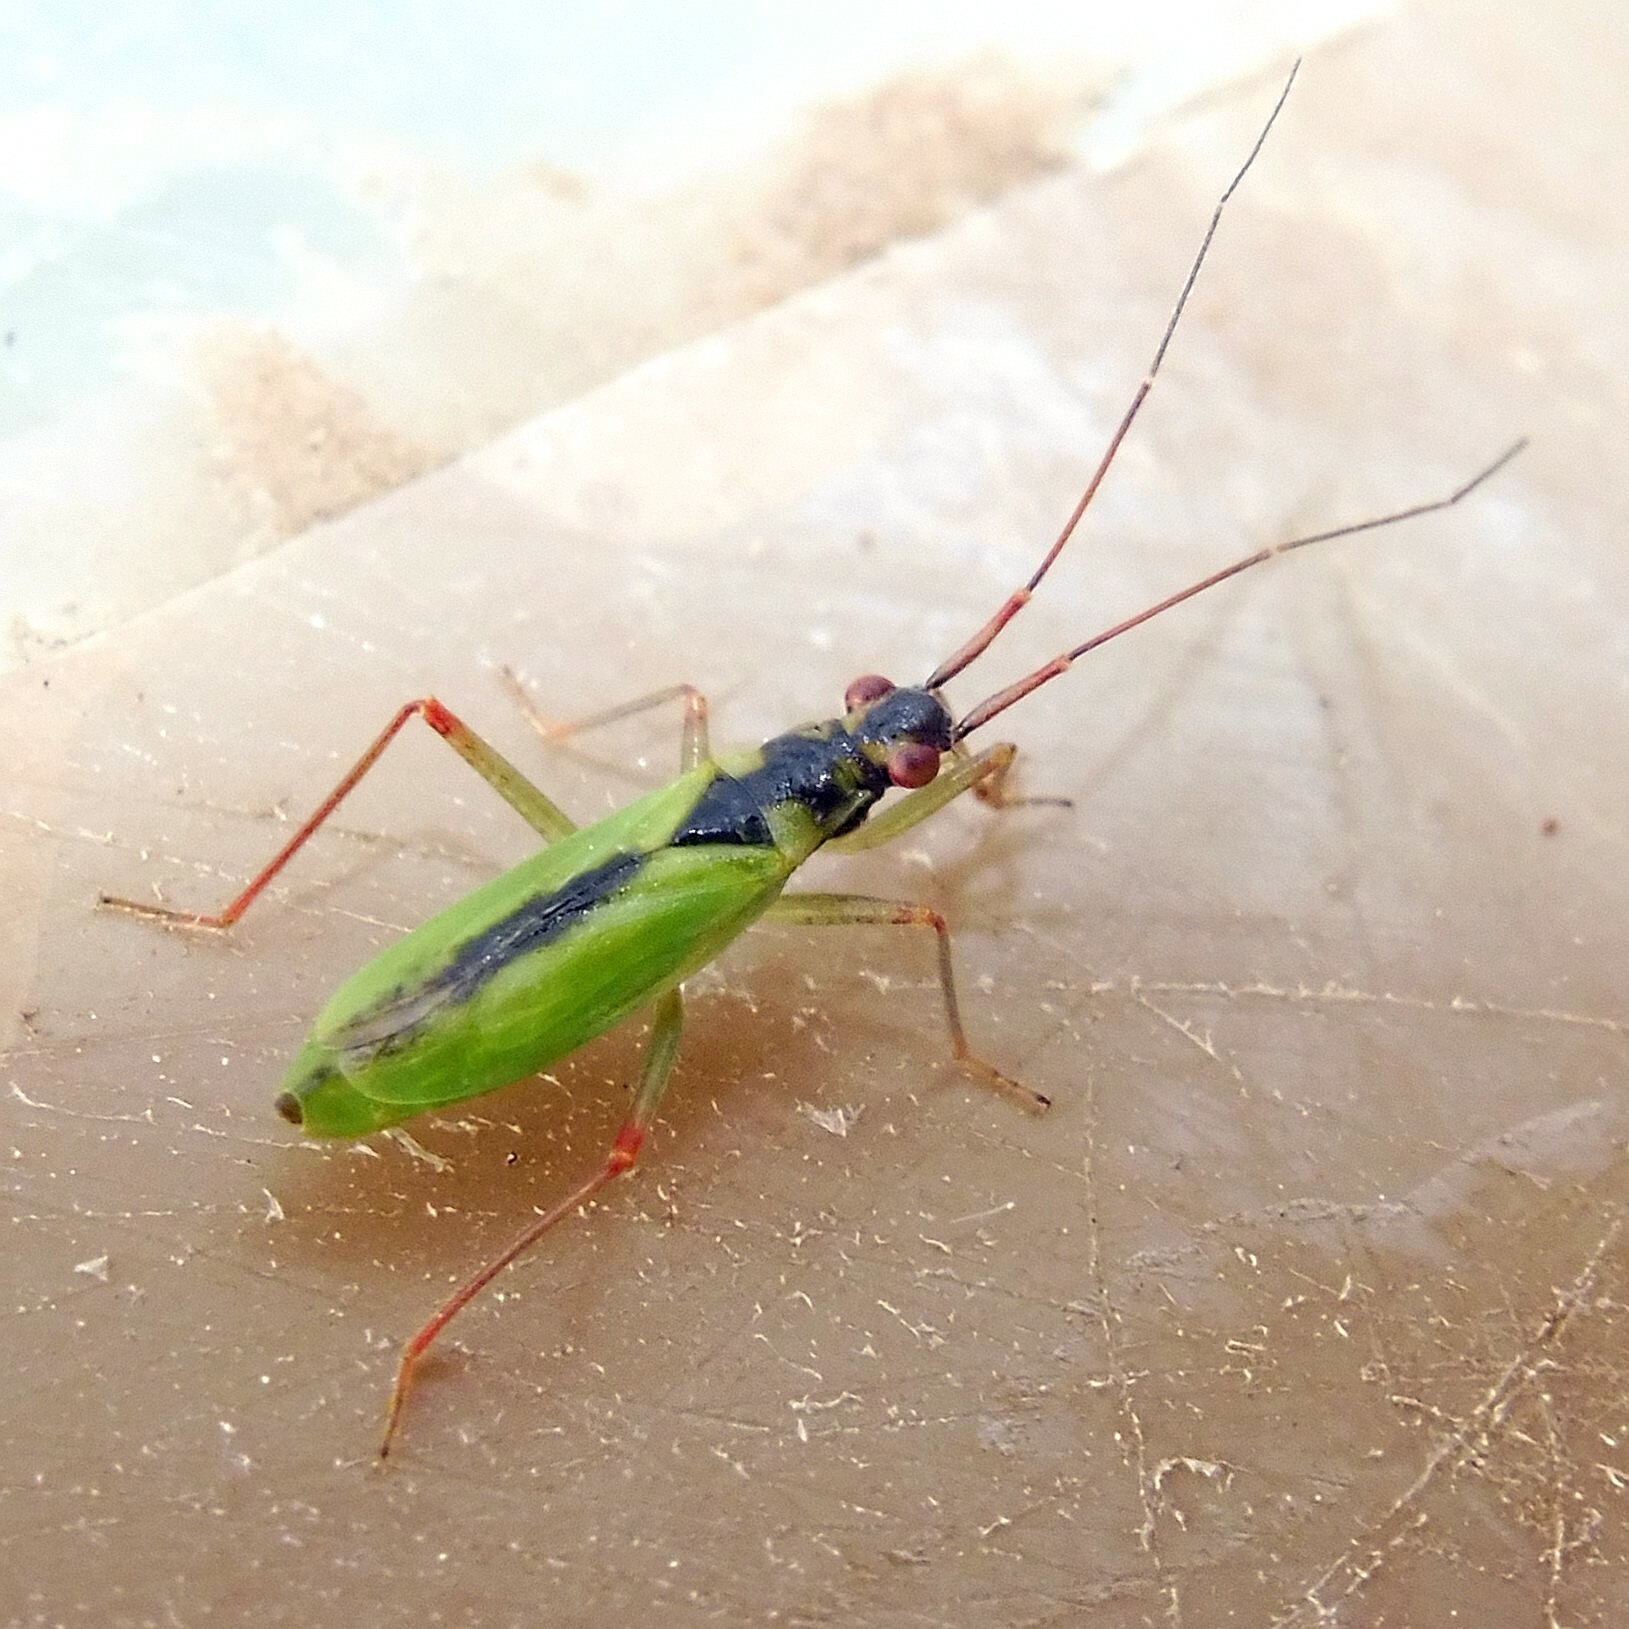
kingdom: Animalia
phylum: Arthropoda
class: Insecta
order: Hemiptera
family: Miridae
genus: Teratocoris
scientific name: Teratocoris antennatus
